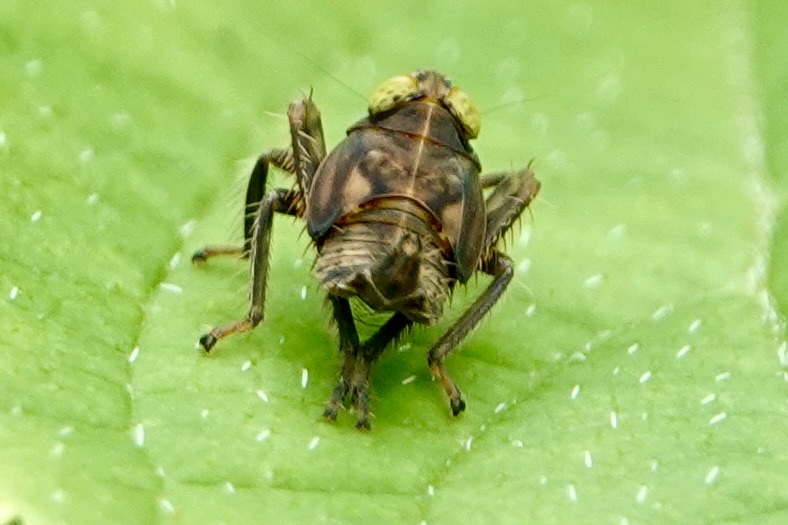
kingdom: Animalia
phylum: Arthropoda
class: Insecta
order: Hemiptera
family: Cicadellidae
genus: Jikradia
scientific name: Jikradia olitoria
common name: Coppery leafhopper
